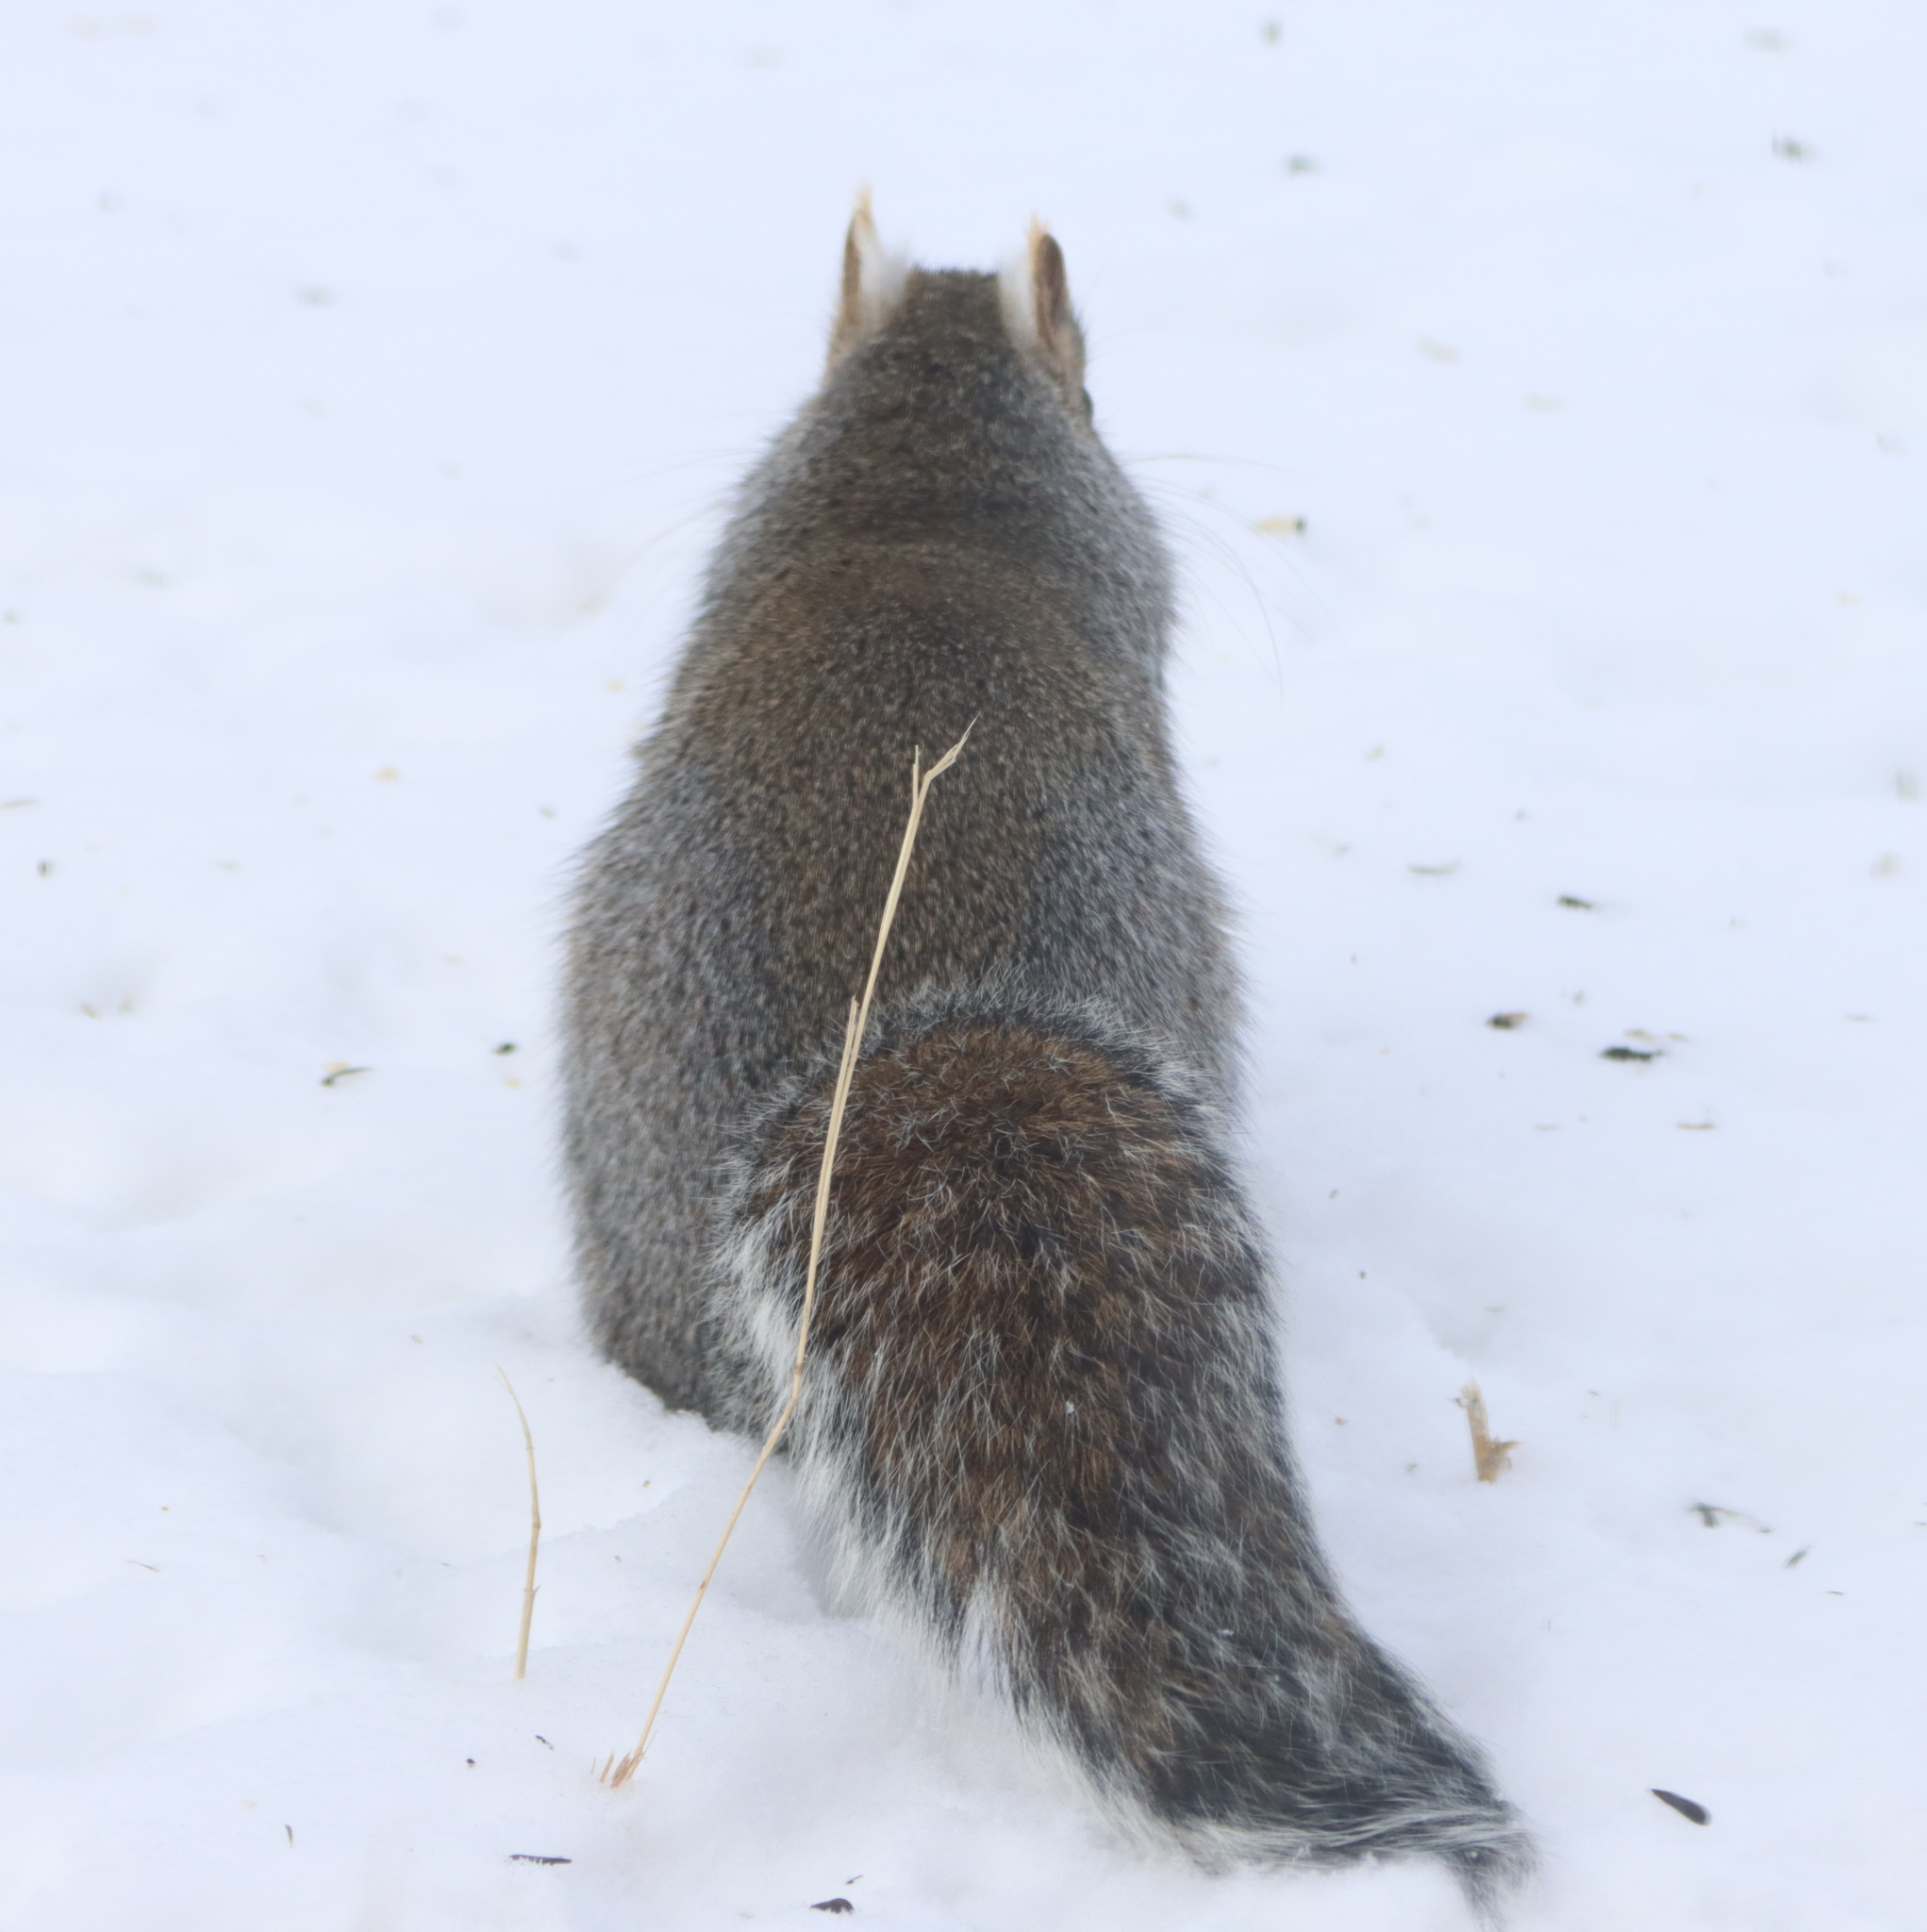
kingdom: Animalia
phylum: Chordata
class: Mammalia
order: Rodentia
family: Sciuridae
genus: Sciurus
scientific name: Sciurus carolinensis
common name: Eastern gray squirrel
